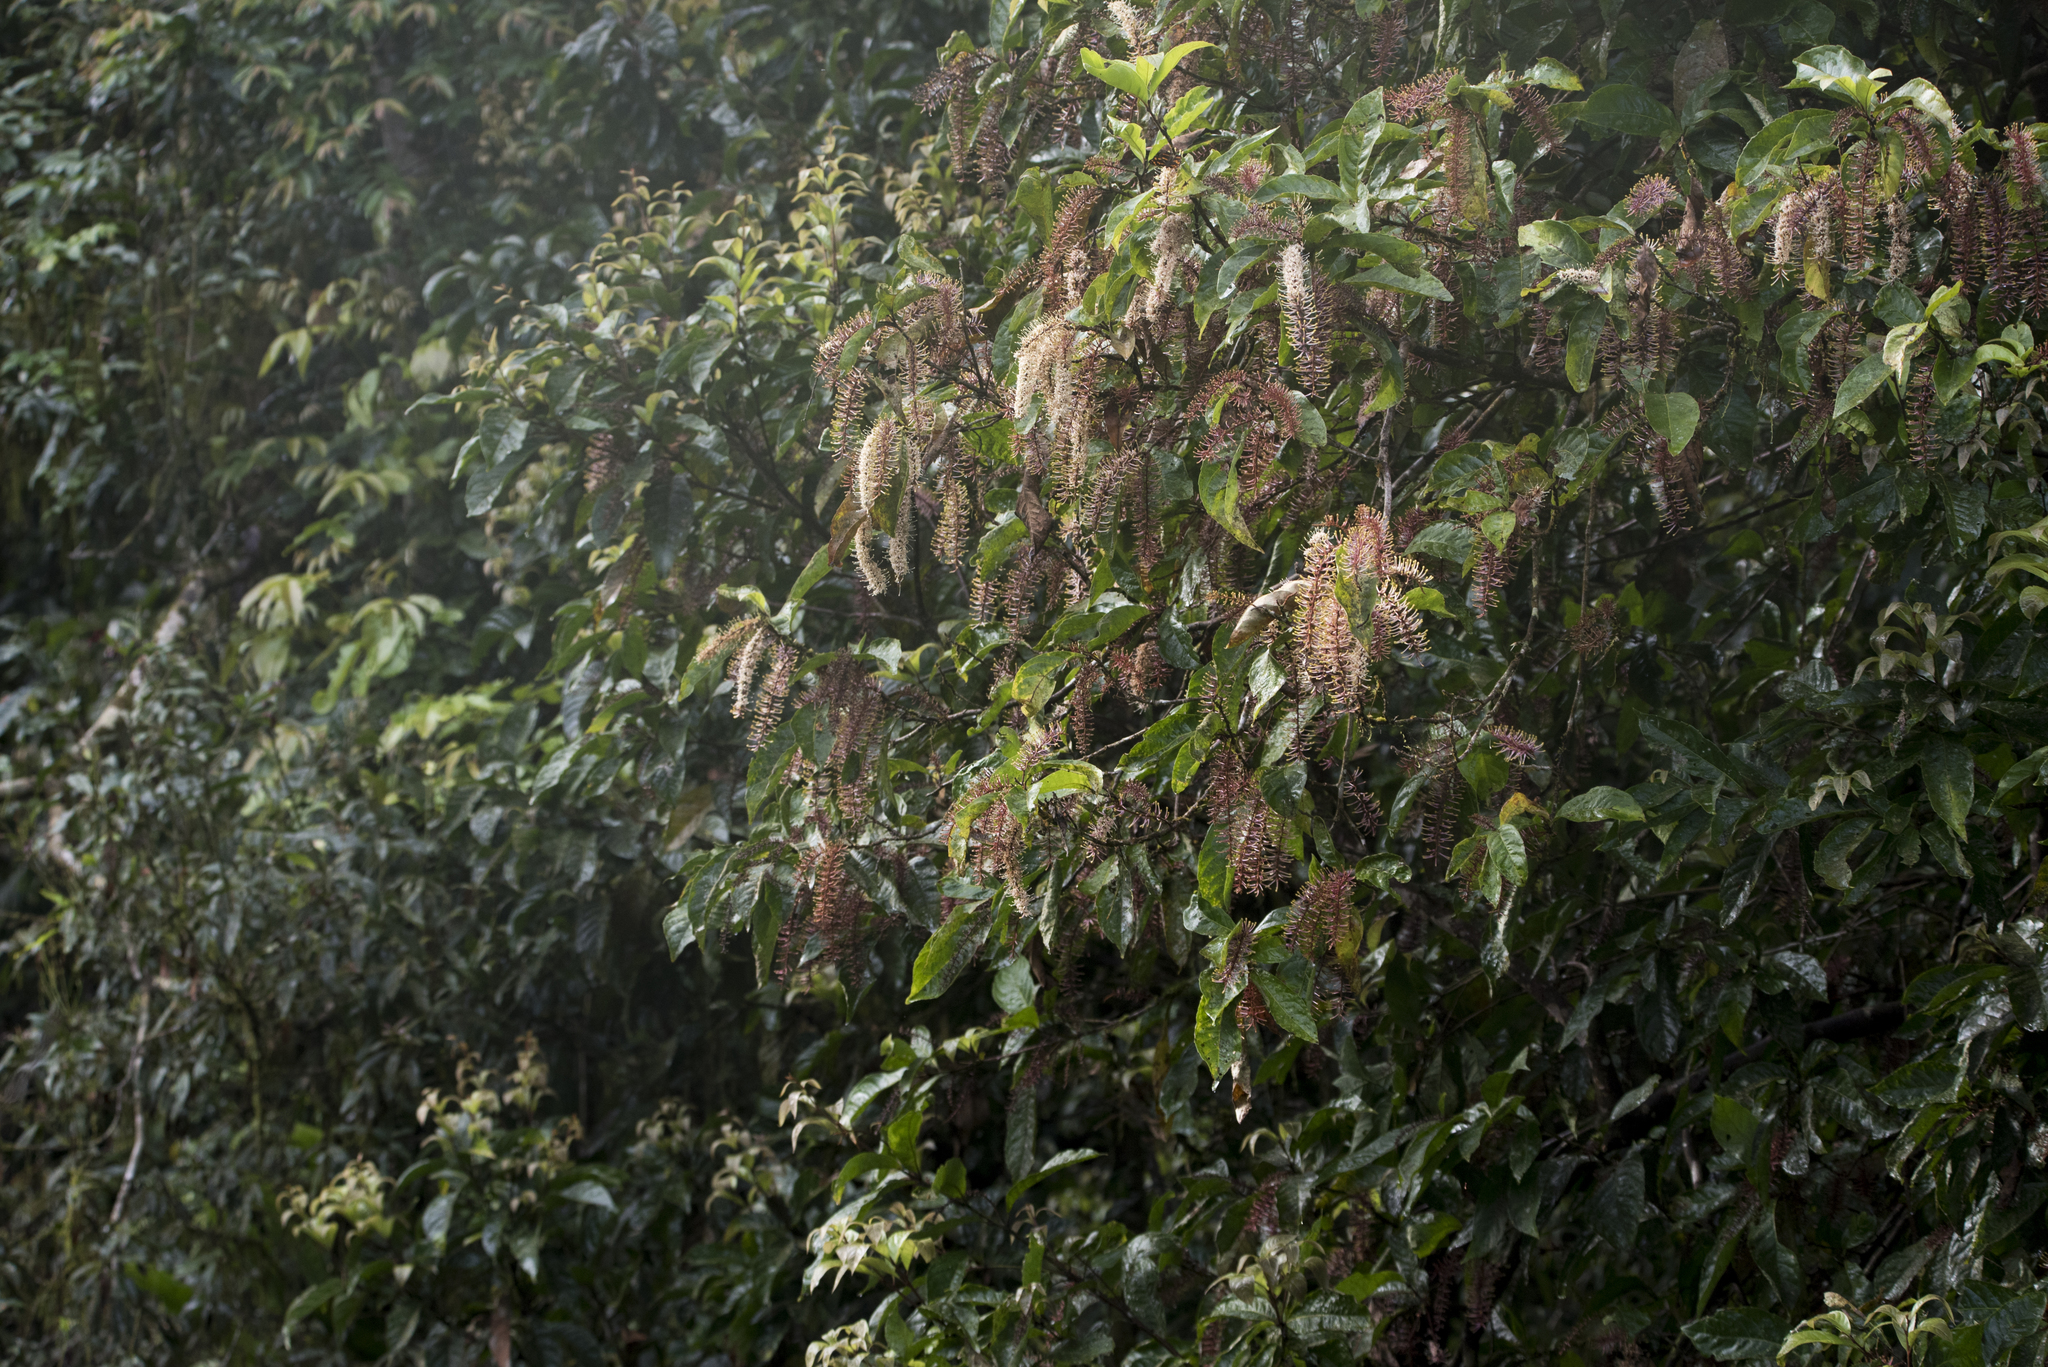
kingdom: Plantae
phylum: Tracheophyta
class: Magnoliopsida
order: Proteales
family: Proteaceae
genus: Helicia
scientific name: Helicia formosana
